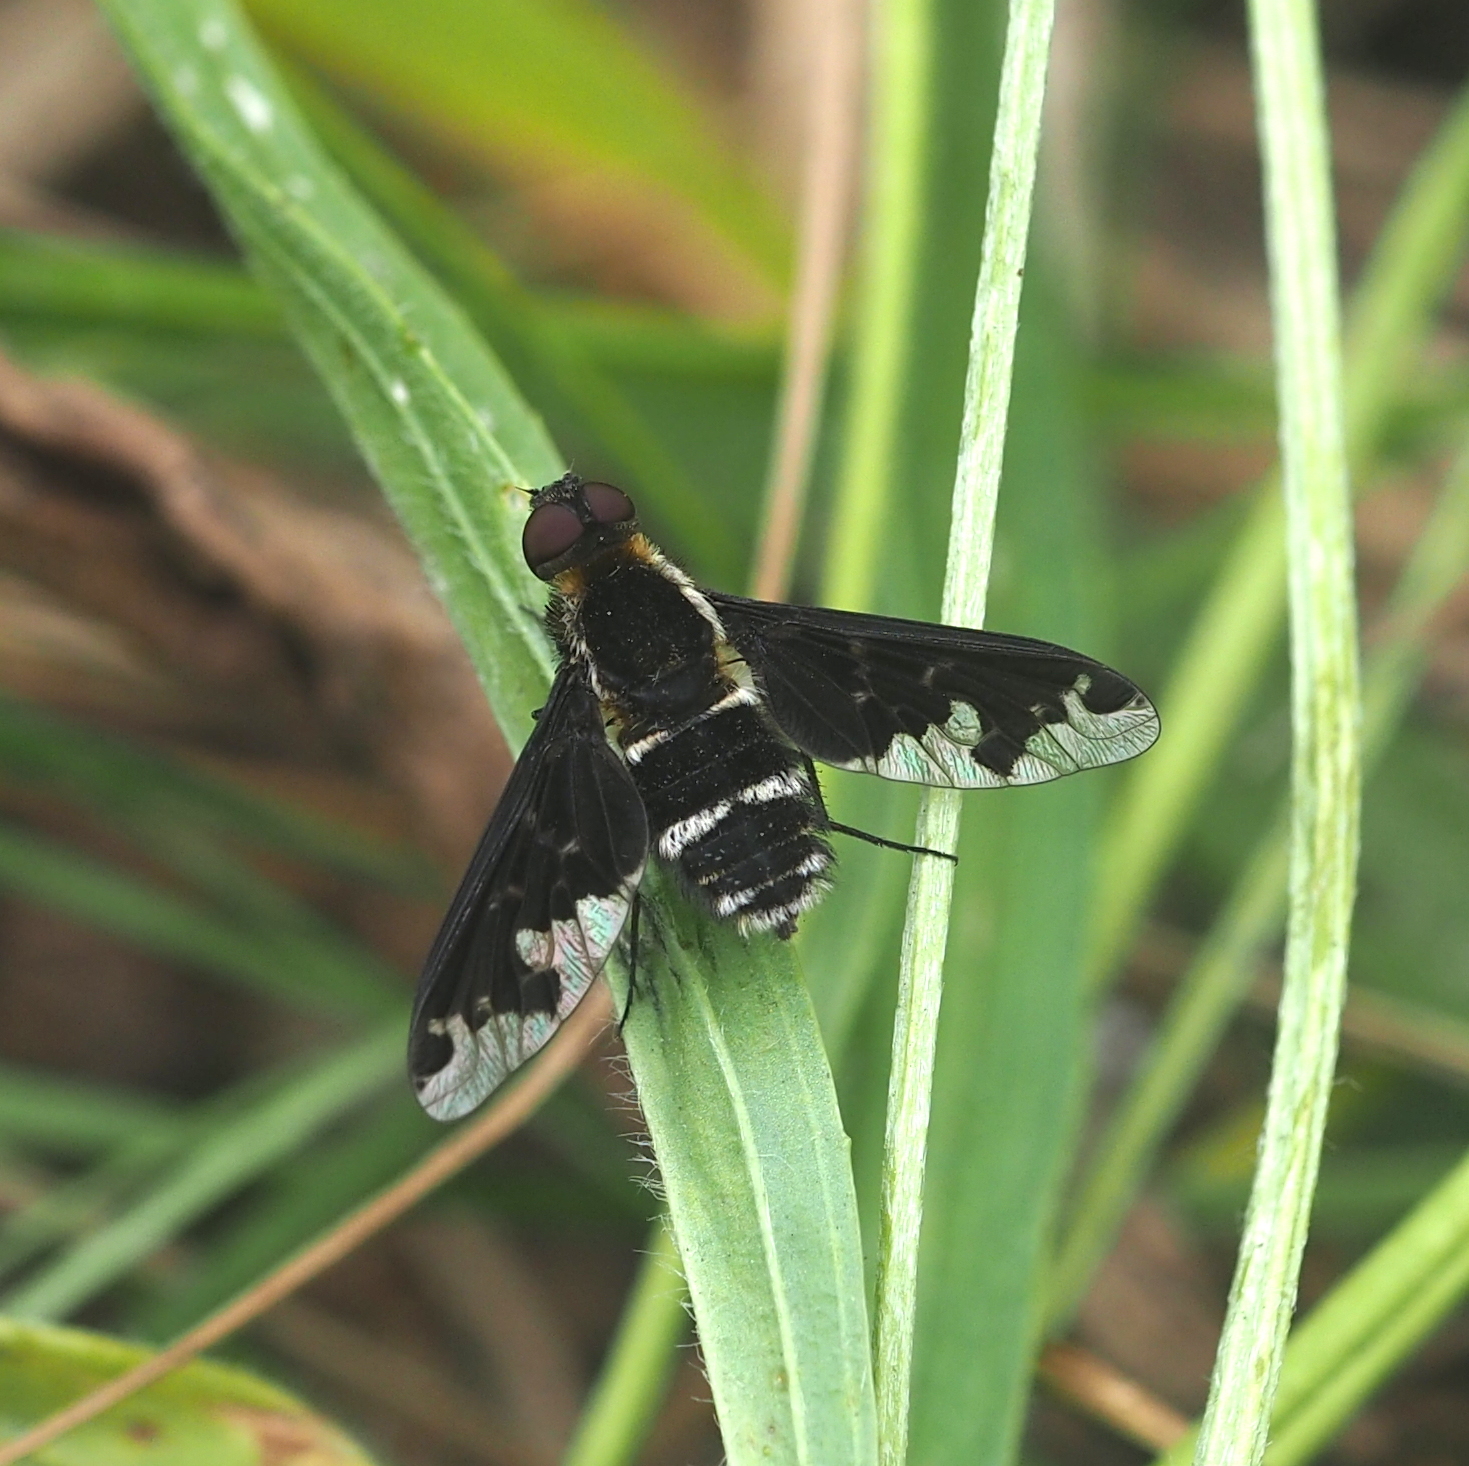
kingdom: Animalia
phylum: Arthropoda
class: Insecta
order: Diptera
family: Bombyliidae
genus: Hemipenthes
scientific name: Hemipenthes maura
